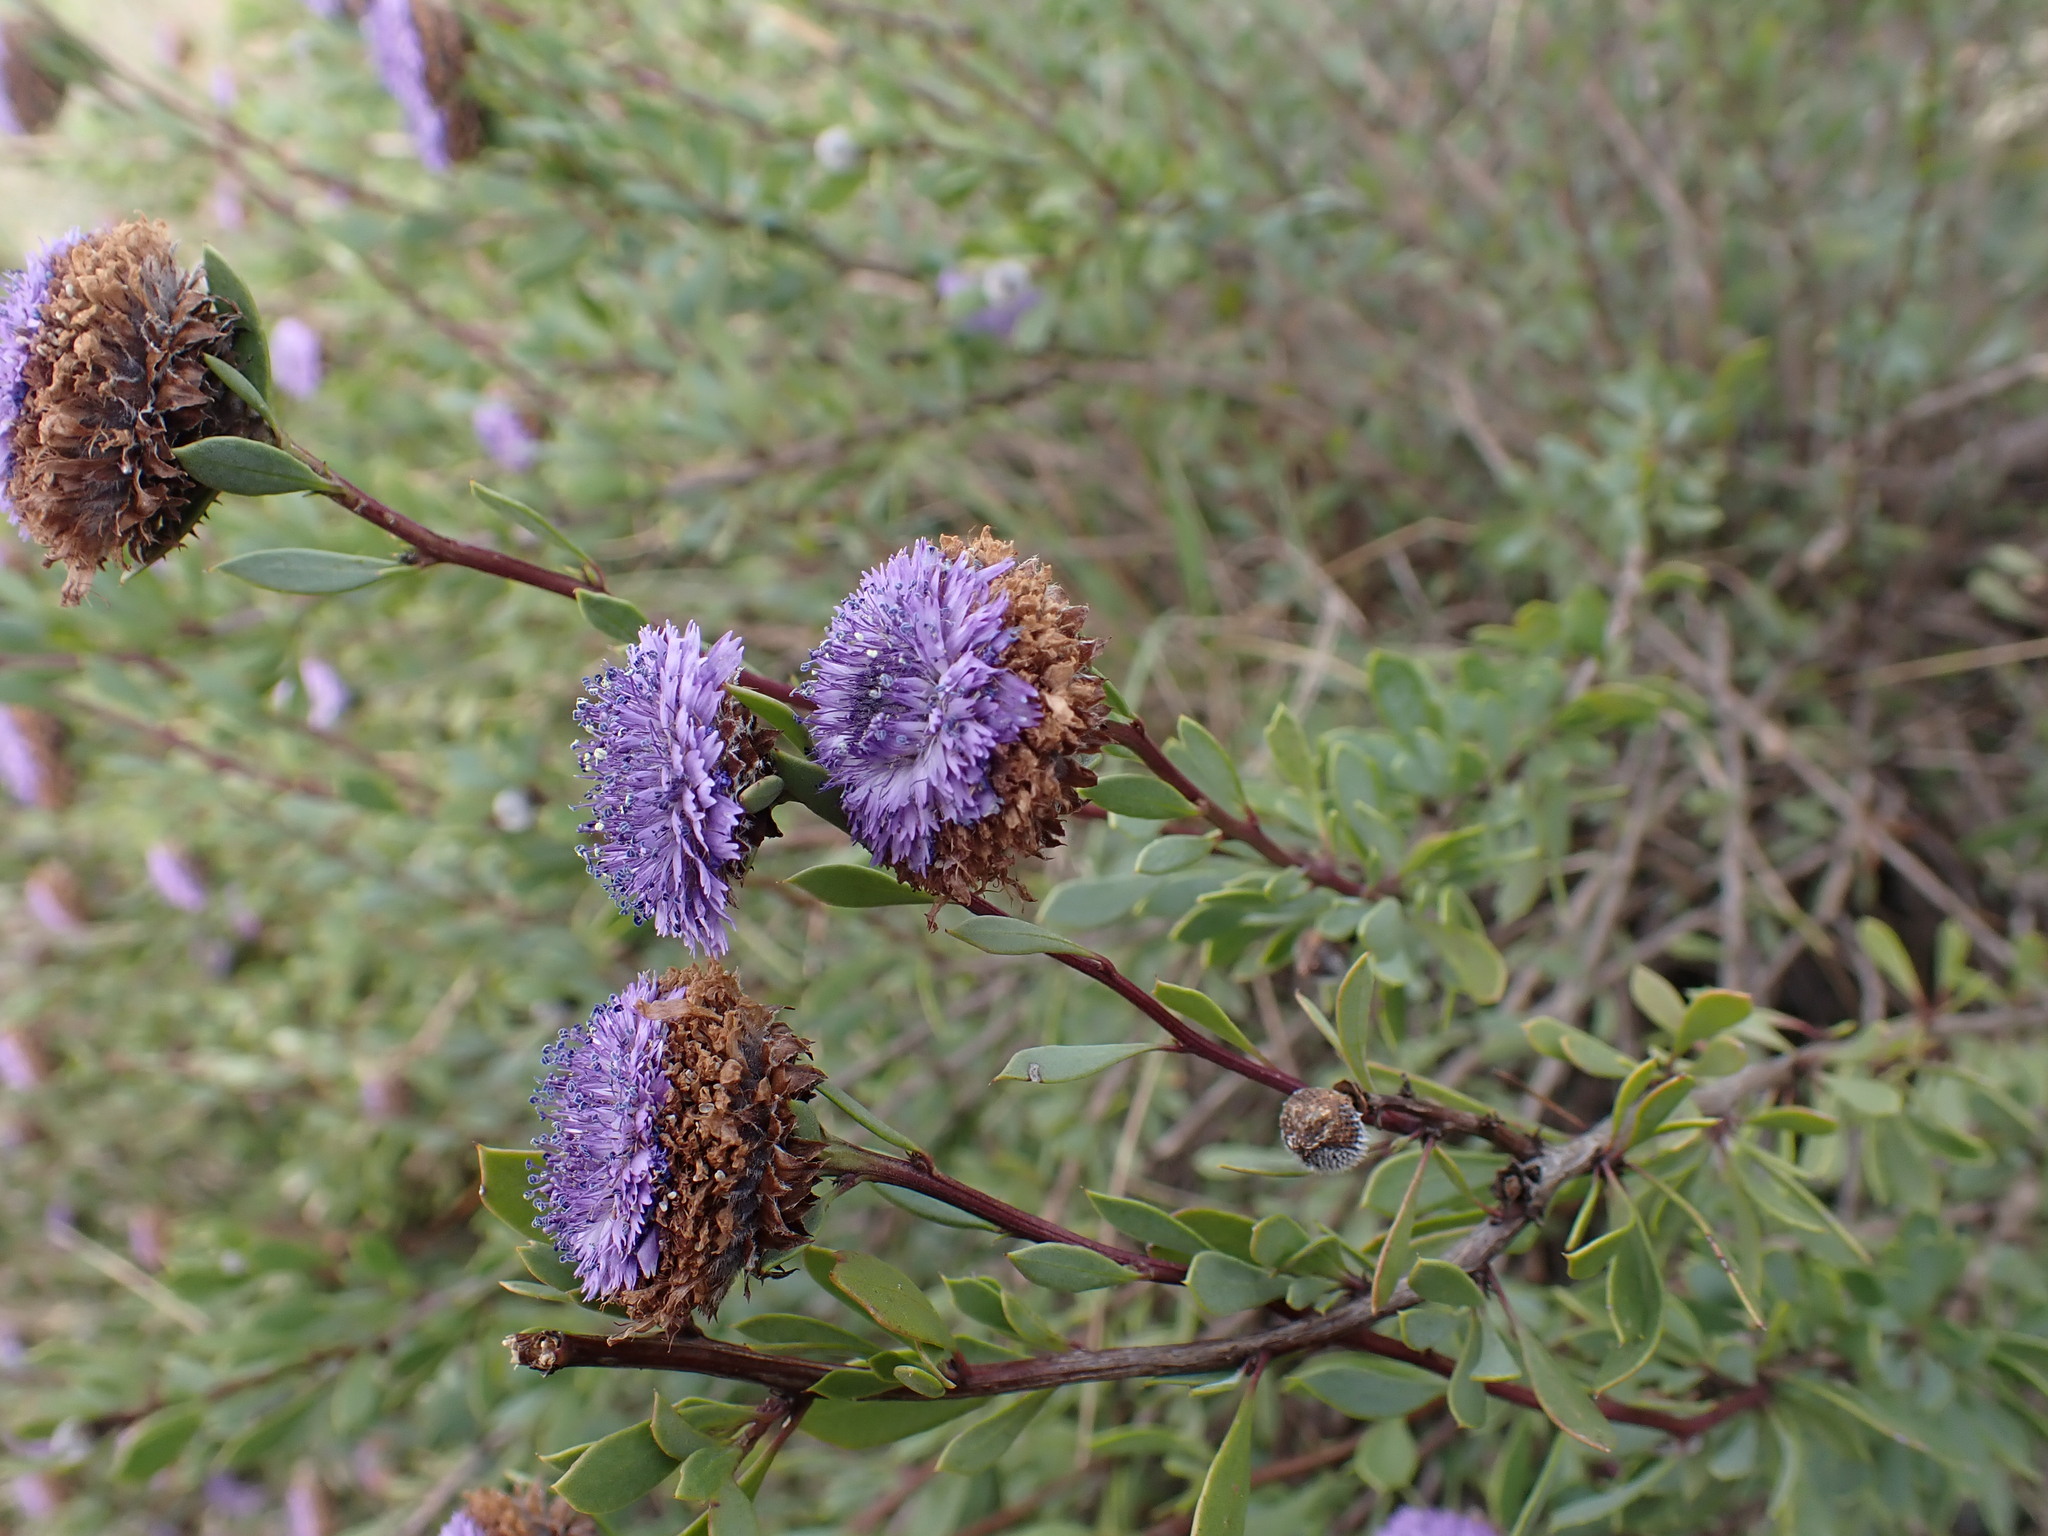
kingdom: Plantae
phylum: Tracheophyta
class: Magnoliopsida
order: Lamiales
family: Plantaginaceae
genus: Globularia
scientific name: Globularia alypum
